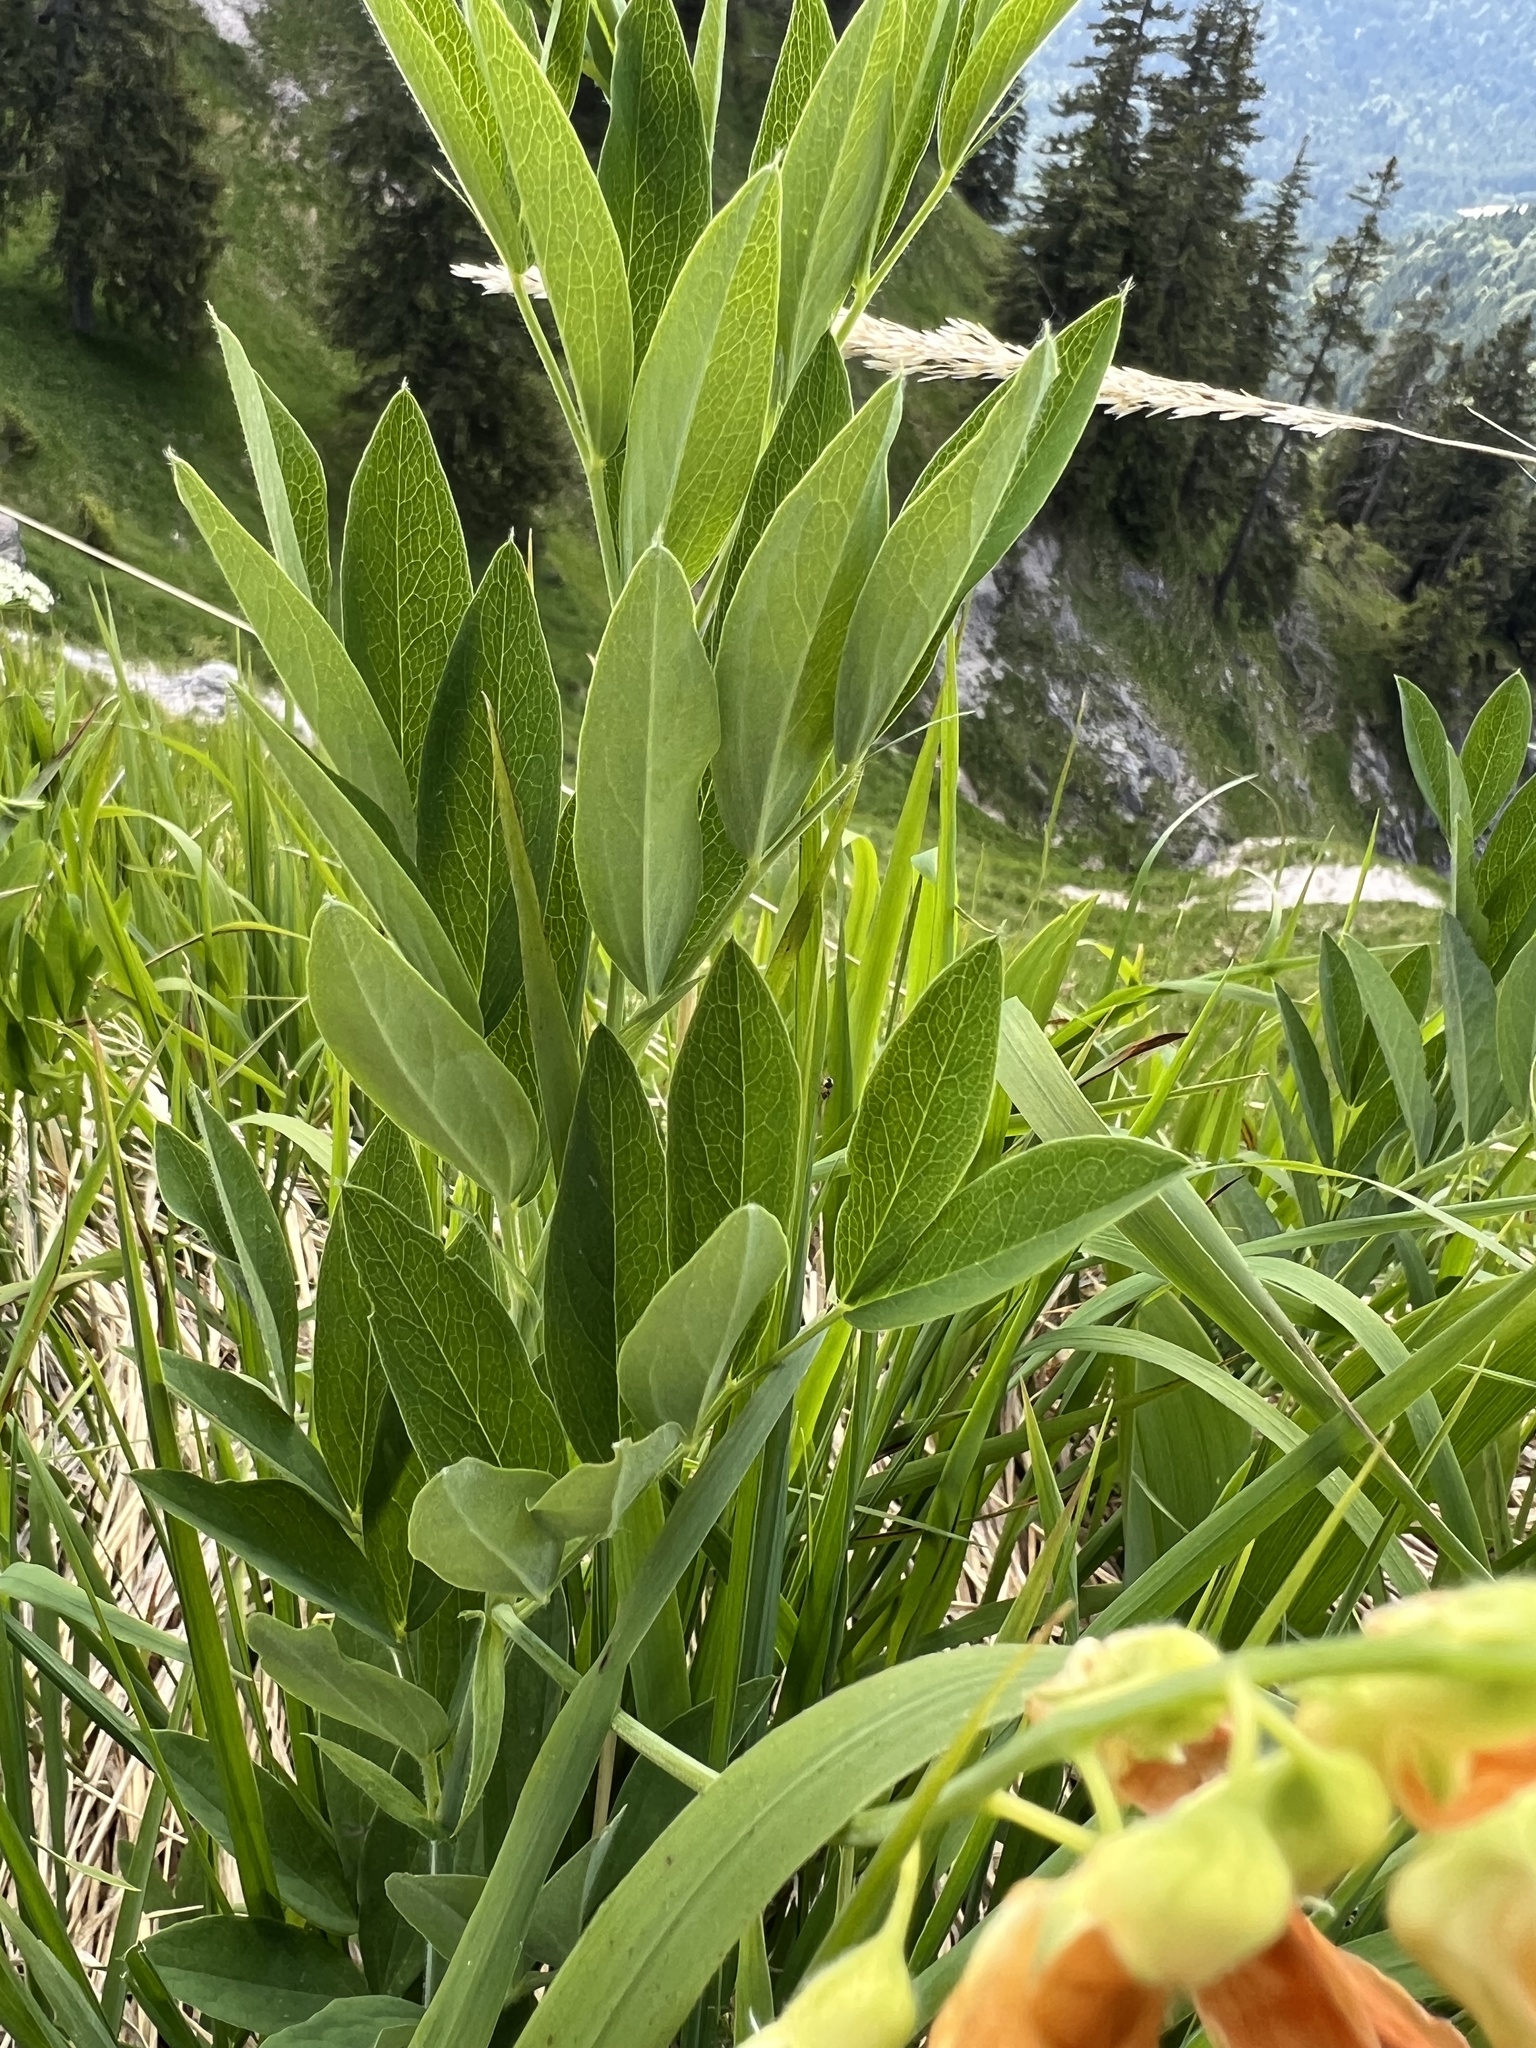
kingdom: Plantae
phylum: Tracheophyta
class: Magnoliopsida
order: Fabales
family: Fabaceae
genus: Lathyrus
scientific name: Lathyrus laevigatus
